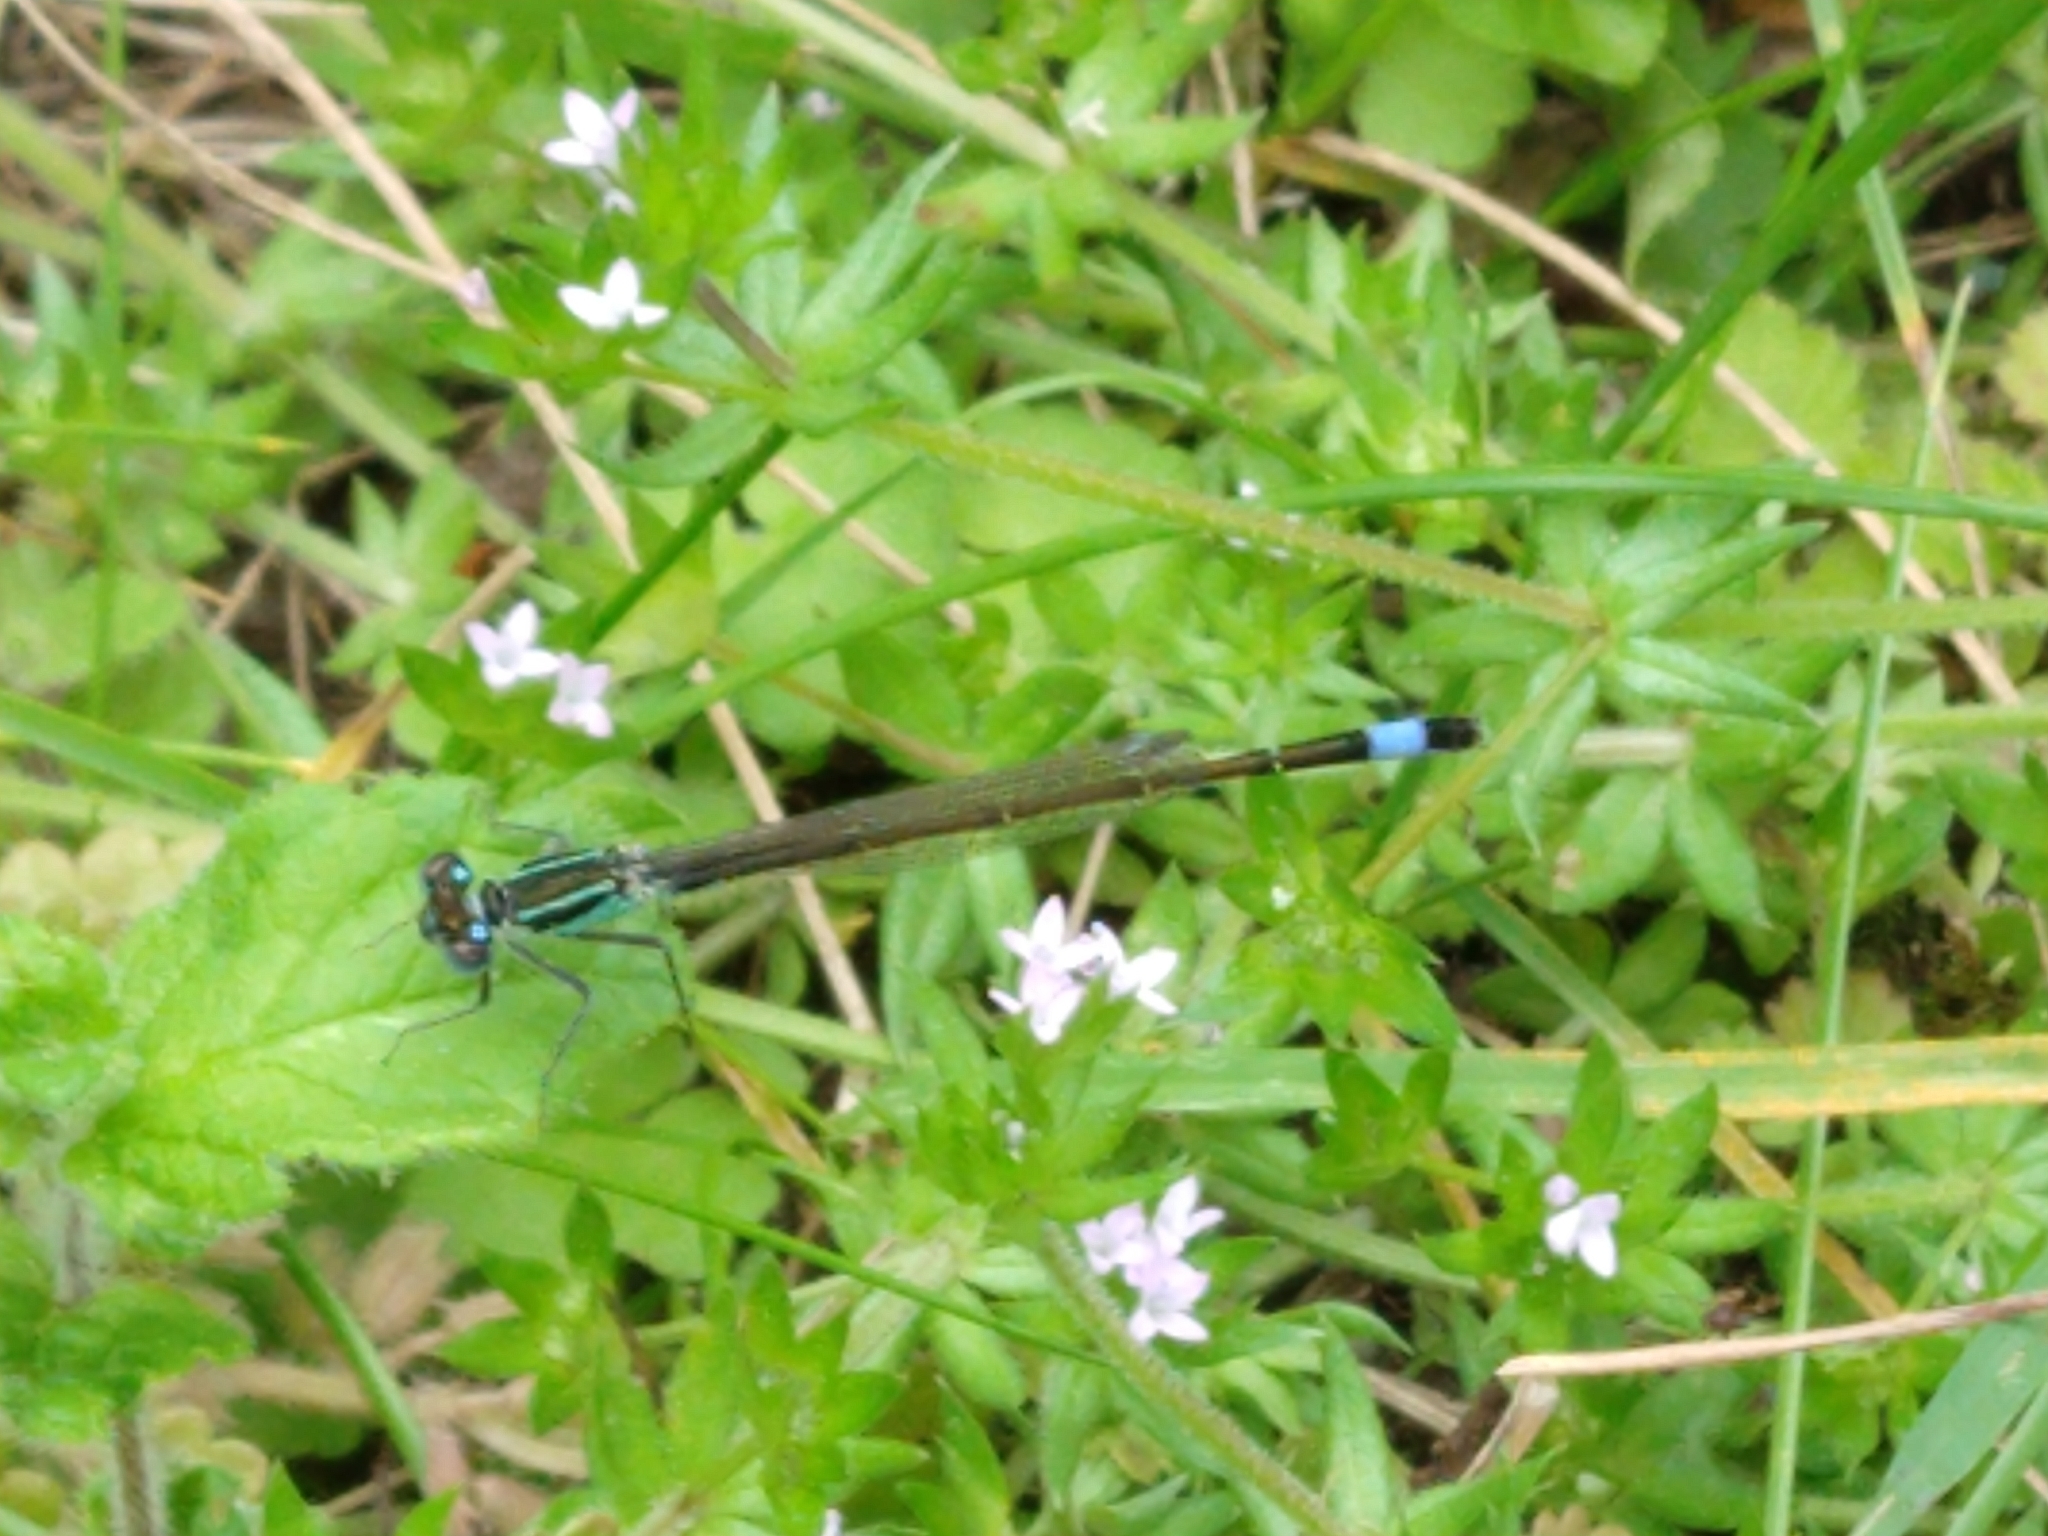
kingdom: Animalia
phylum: Arthropoda
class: Insecta
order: Odonata
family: Coenagrionidae
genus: Ischnura
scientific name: Ischnura elegans
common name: Blue-tailed damselfly
